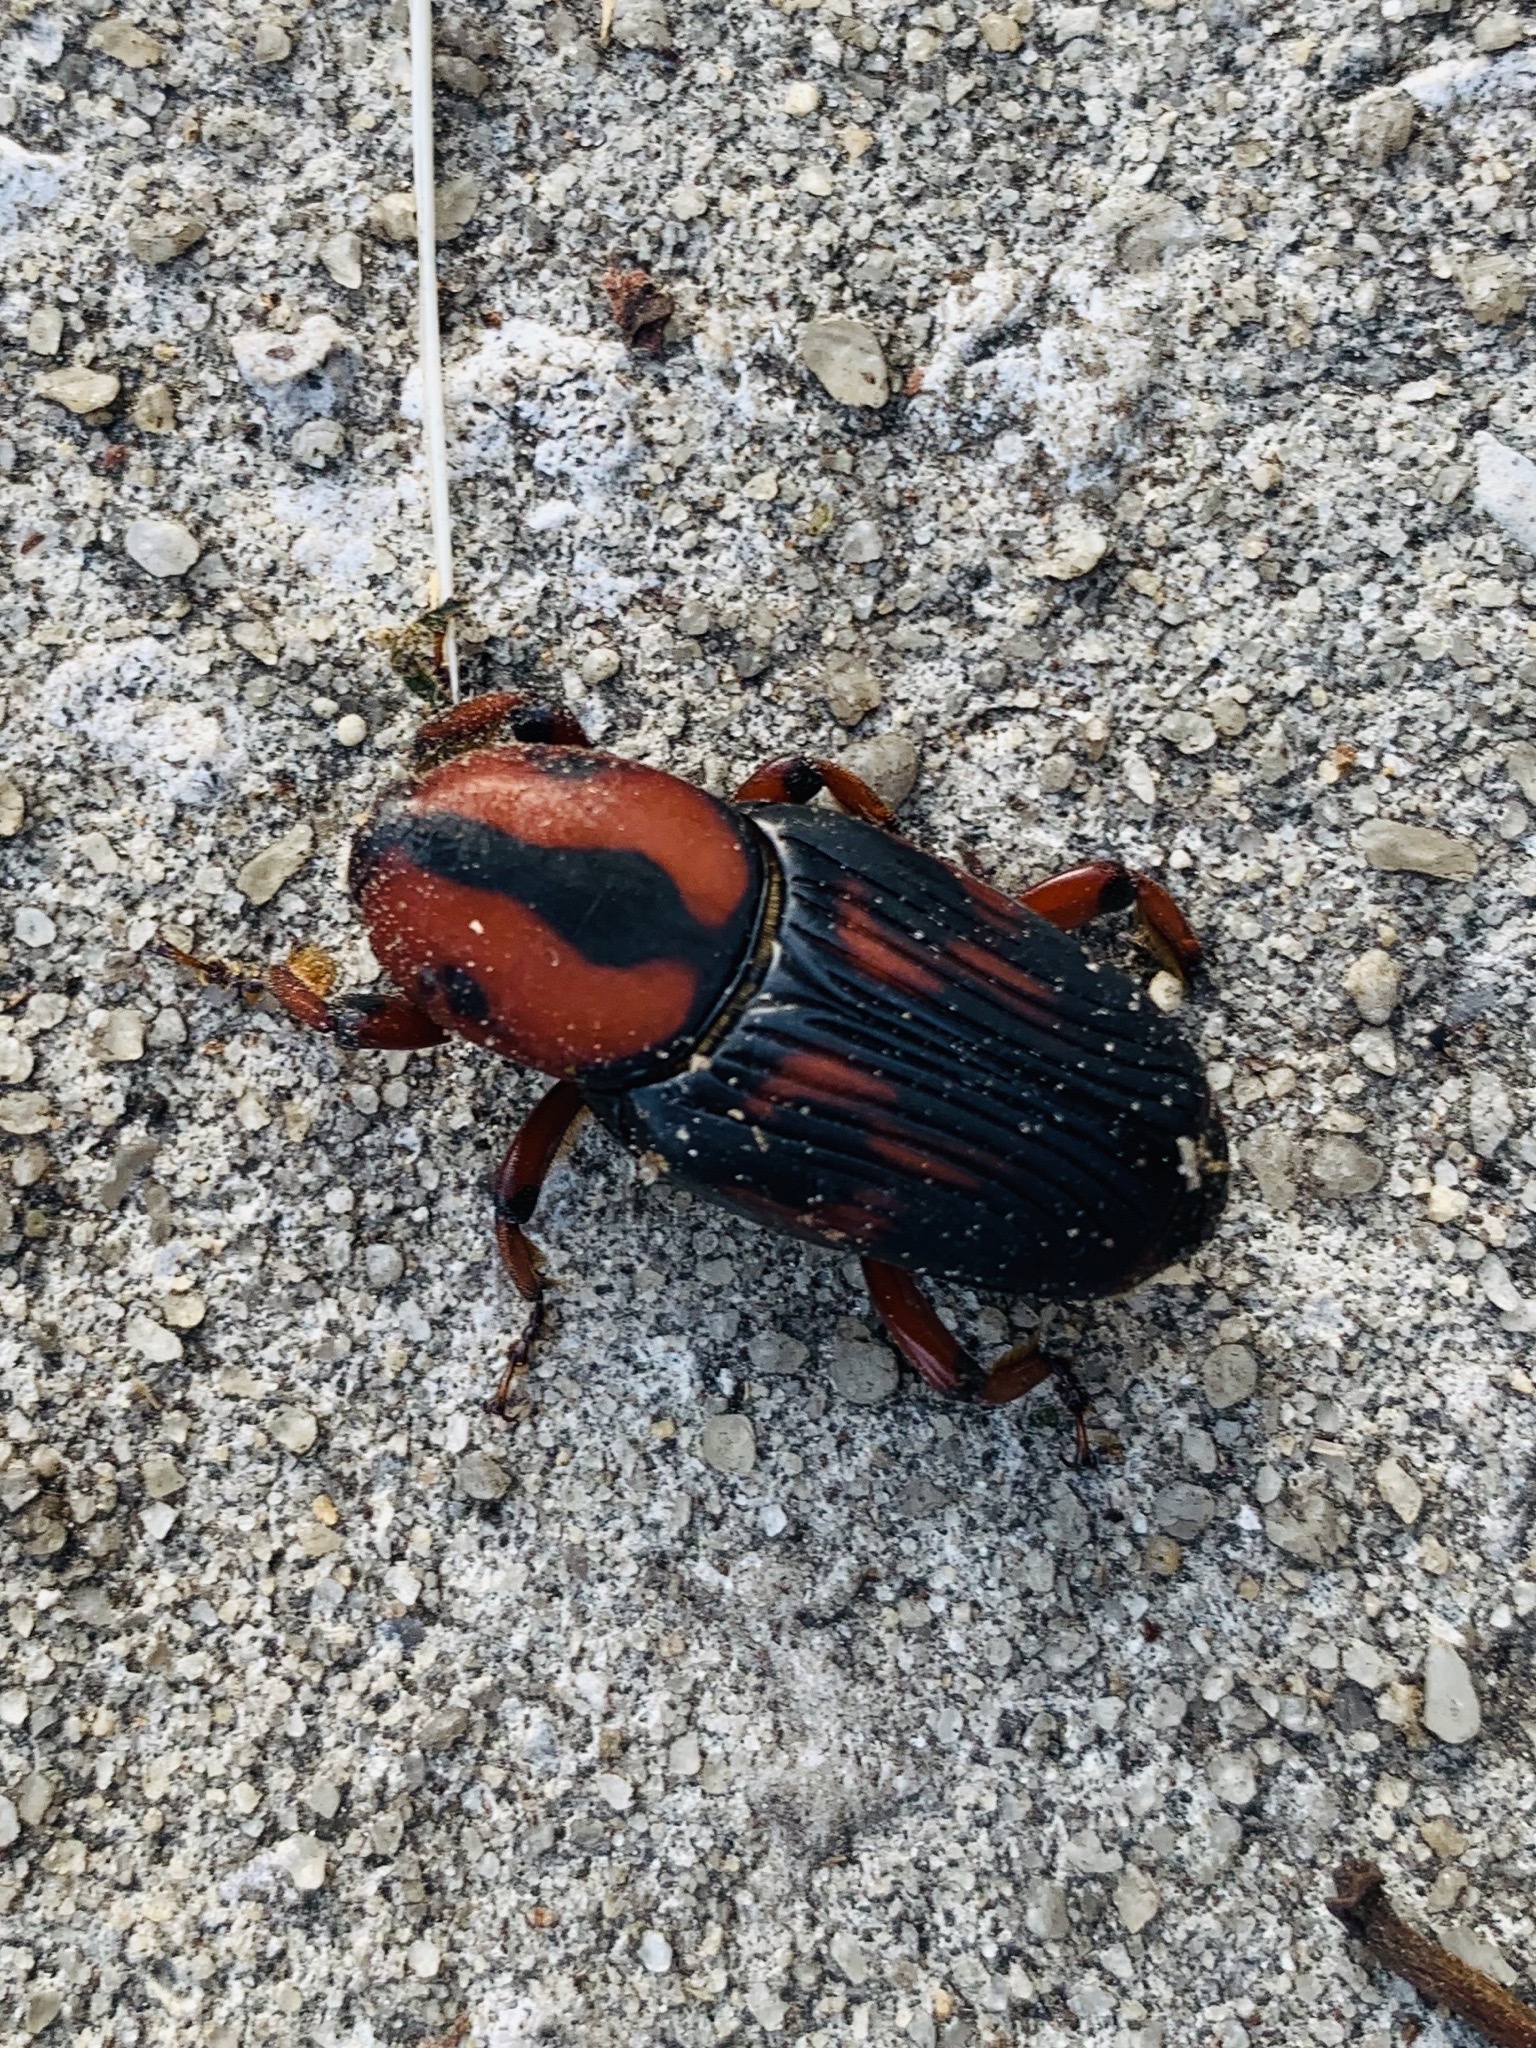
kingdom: Animalia
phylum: Arthropoda
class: Insecta
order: Coleoptera
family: Dryophthoridae
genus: Rhynchophorus
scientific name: Rhynchophorus cruentatus
